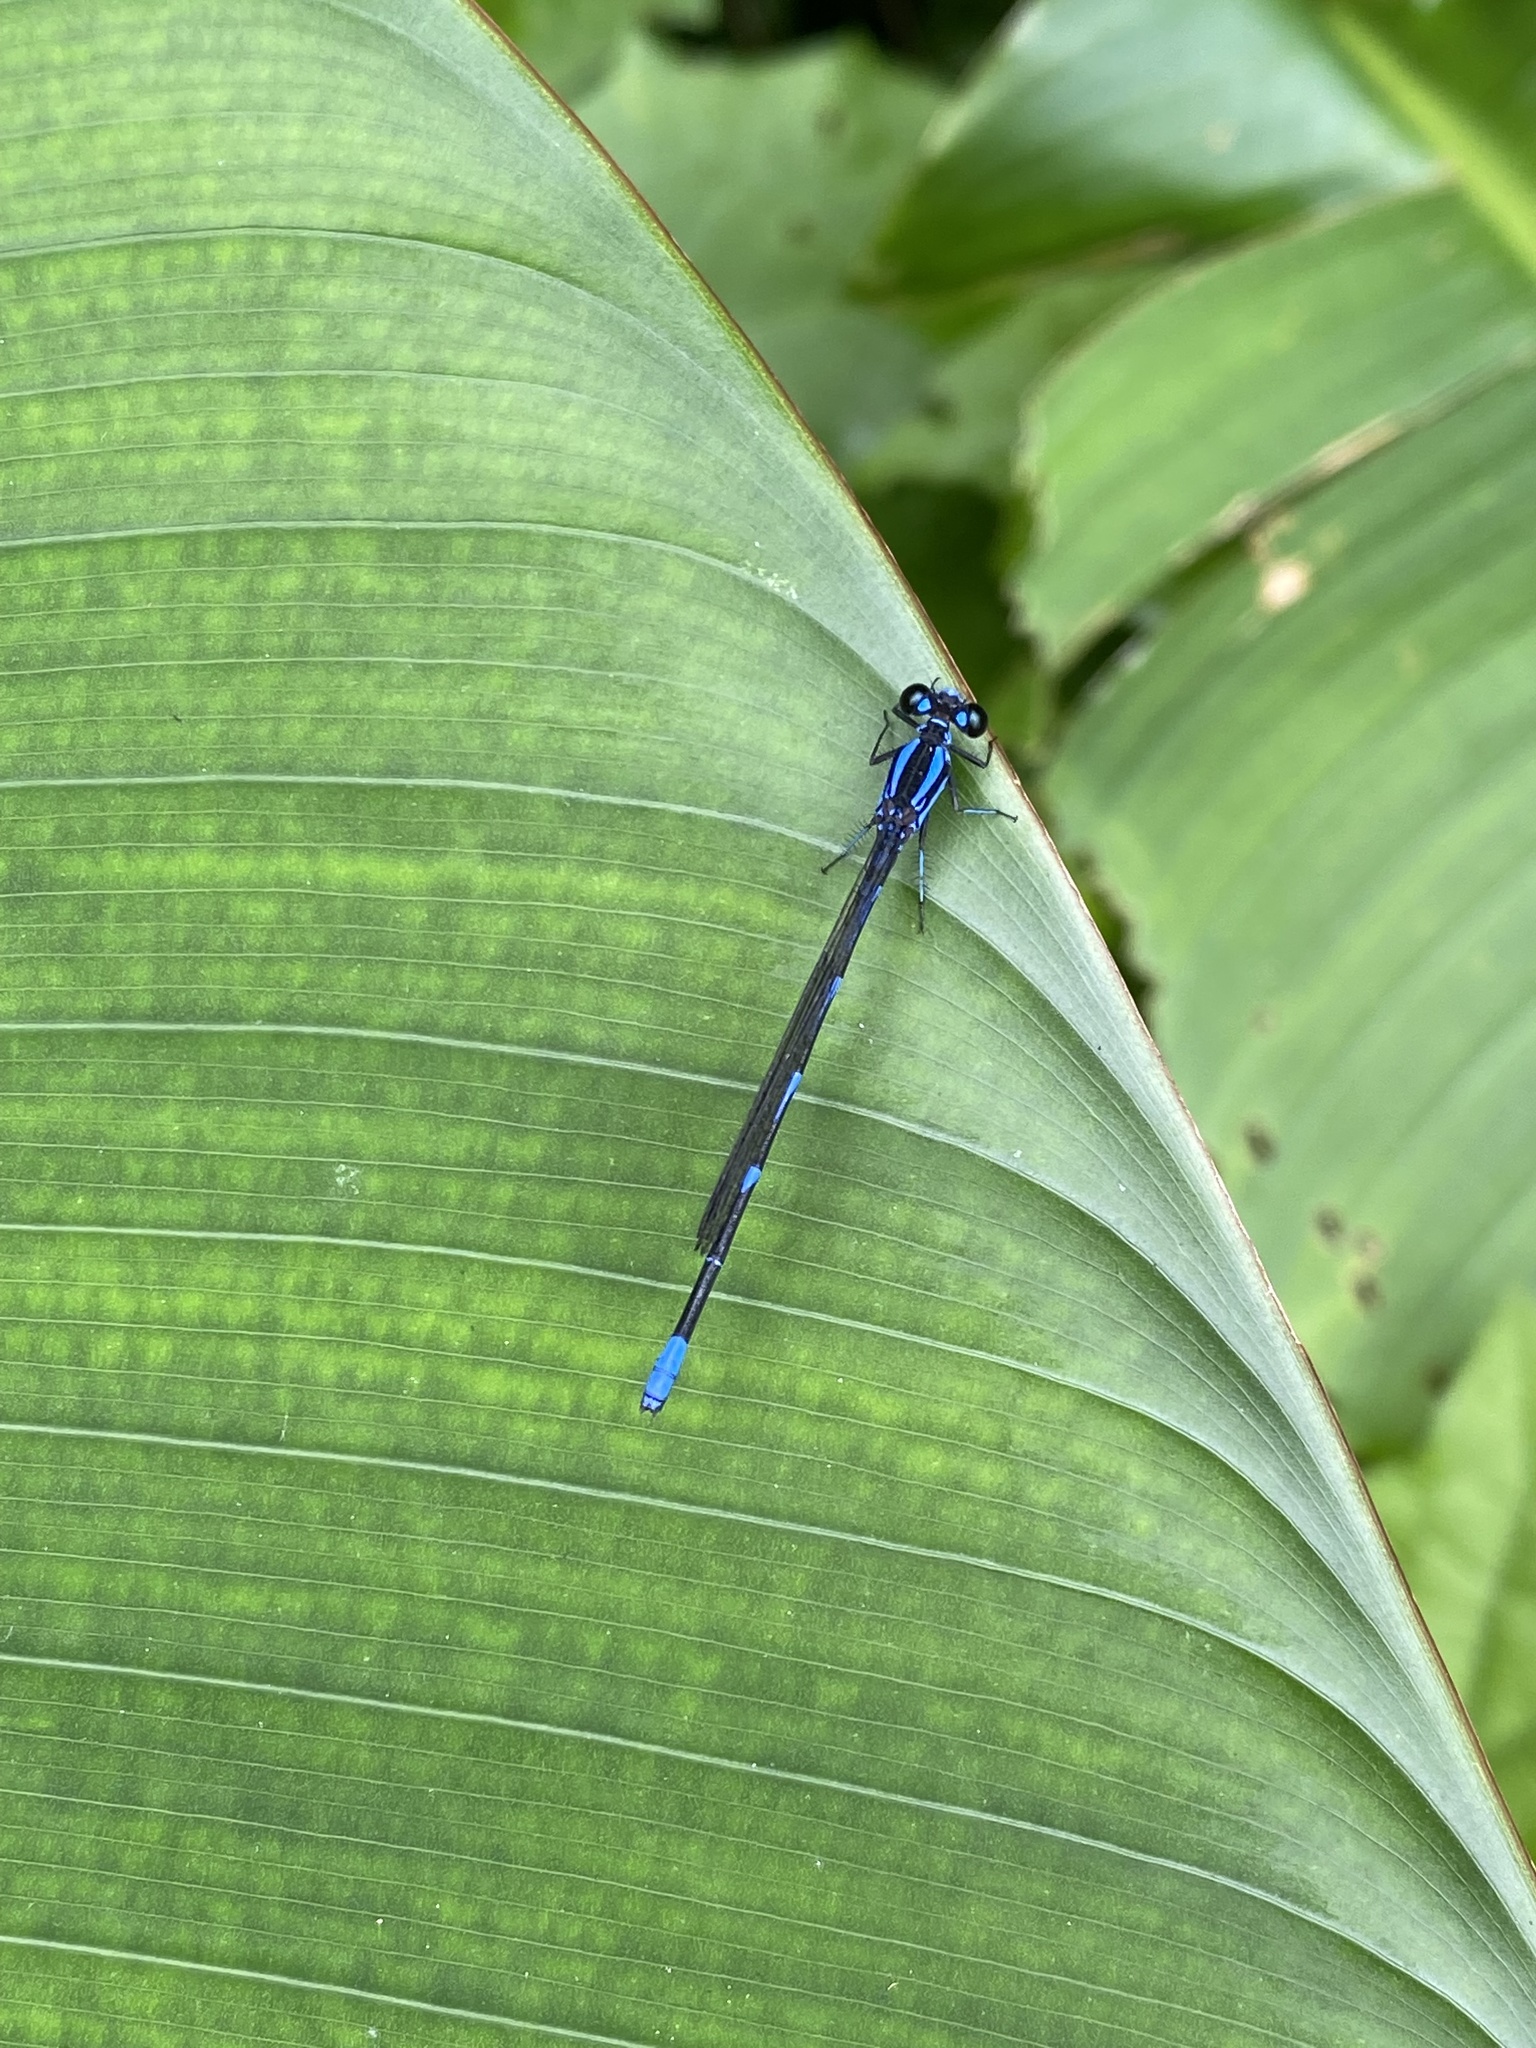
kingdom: Animalia
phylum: Arthropoda
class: Insecta
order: Odonata
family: Coenagrionidae
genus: Argia
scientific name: Argia oculata
